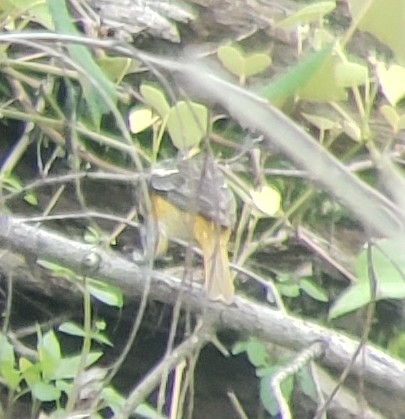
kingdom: Animalia
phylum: Chordata
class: Aves
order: Passeriformes
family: Icteridae
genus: Icterus
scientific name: Icterus galbula
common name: Baltimore oriole
